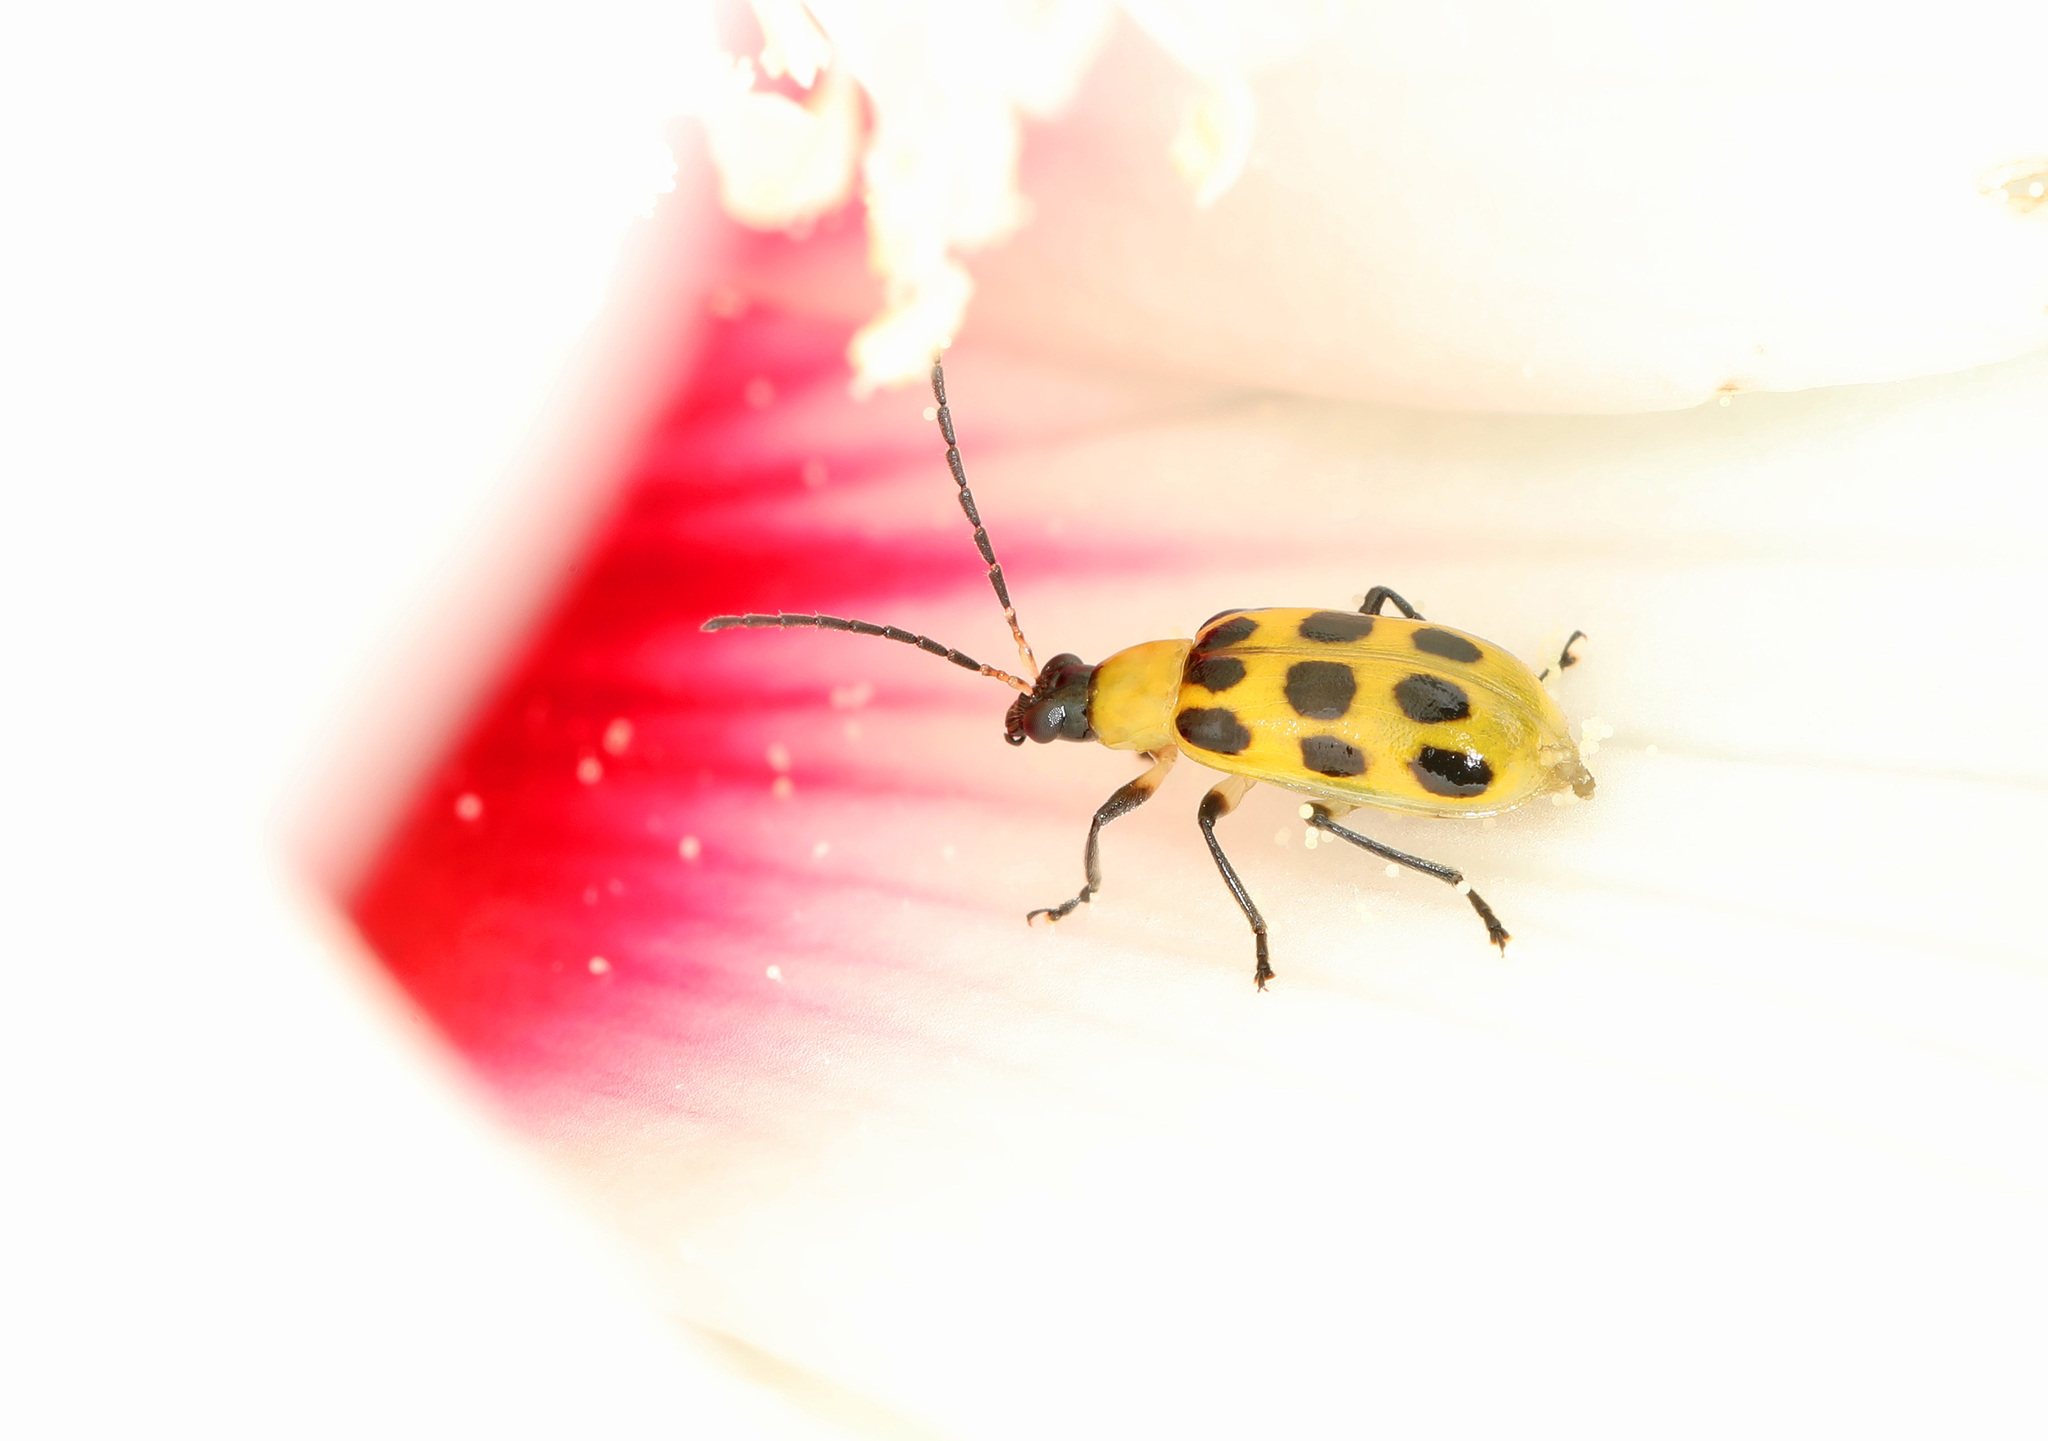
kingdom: Animalia
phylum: Arthropoda
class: Insecta
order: Coleoptera
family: Chrysomelidae
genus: Diabrotica
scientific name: Diabrotica undecimpunctata
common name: Spotted cucumber beetle
